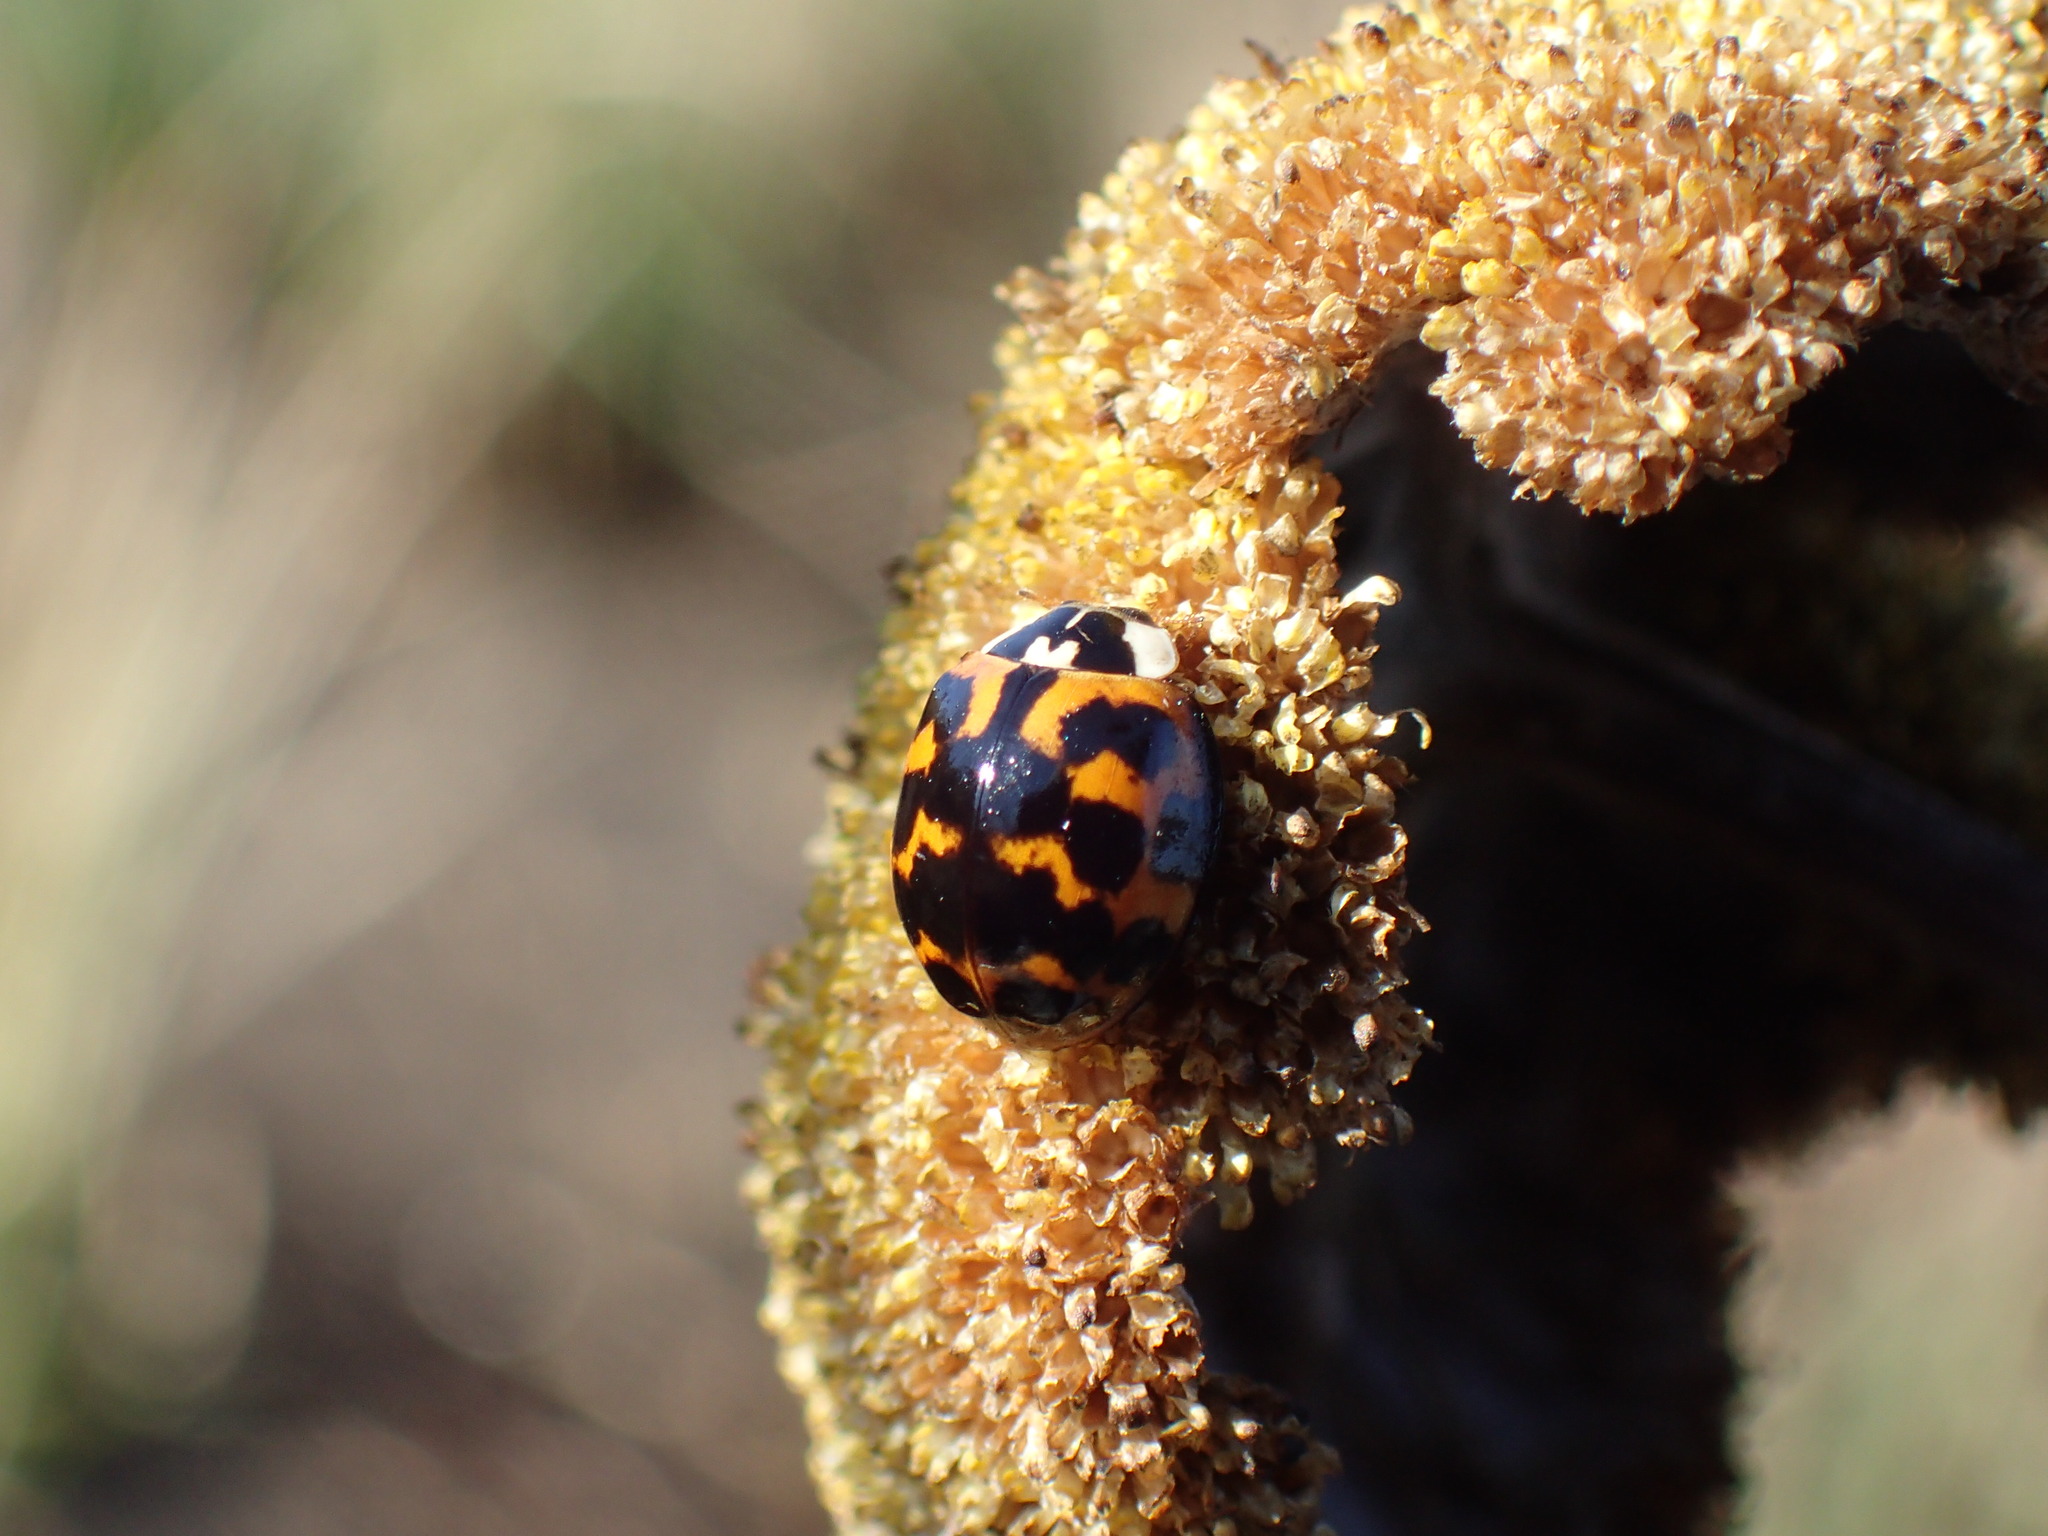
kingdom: Animalia
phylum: Arthropoda
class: Insecta
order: Coleoptera
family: Coccinellidae
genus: Harmonia
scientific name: Harmonia axyridis
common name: Harlequin ladybird
